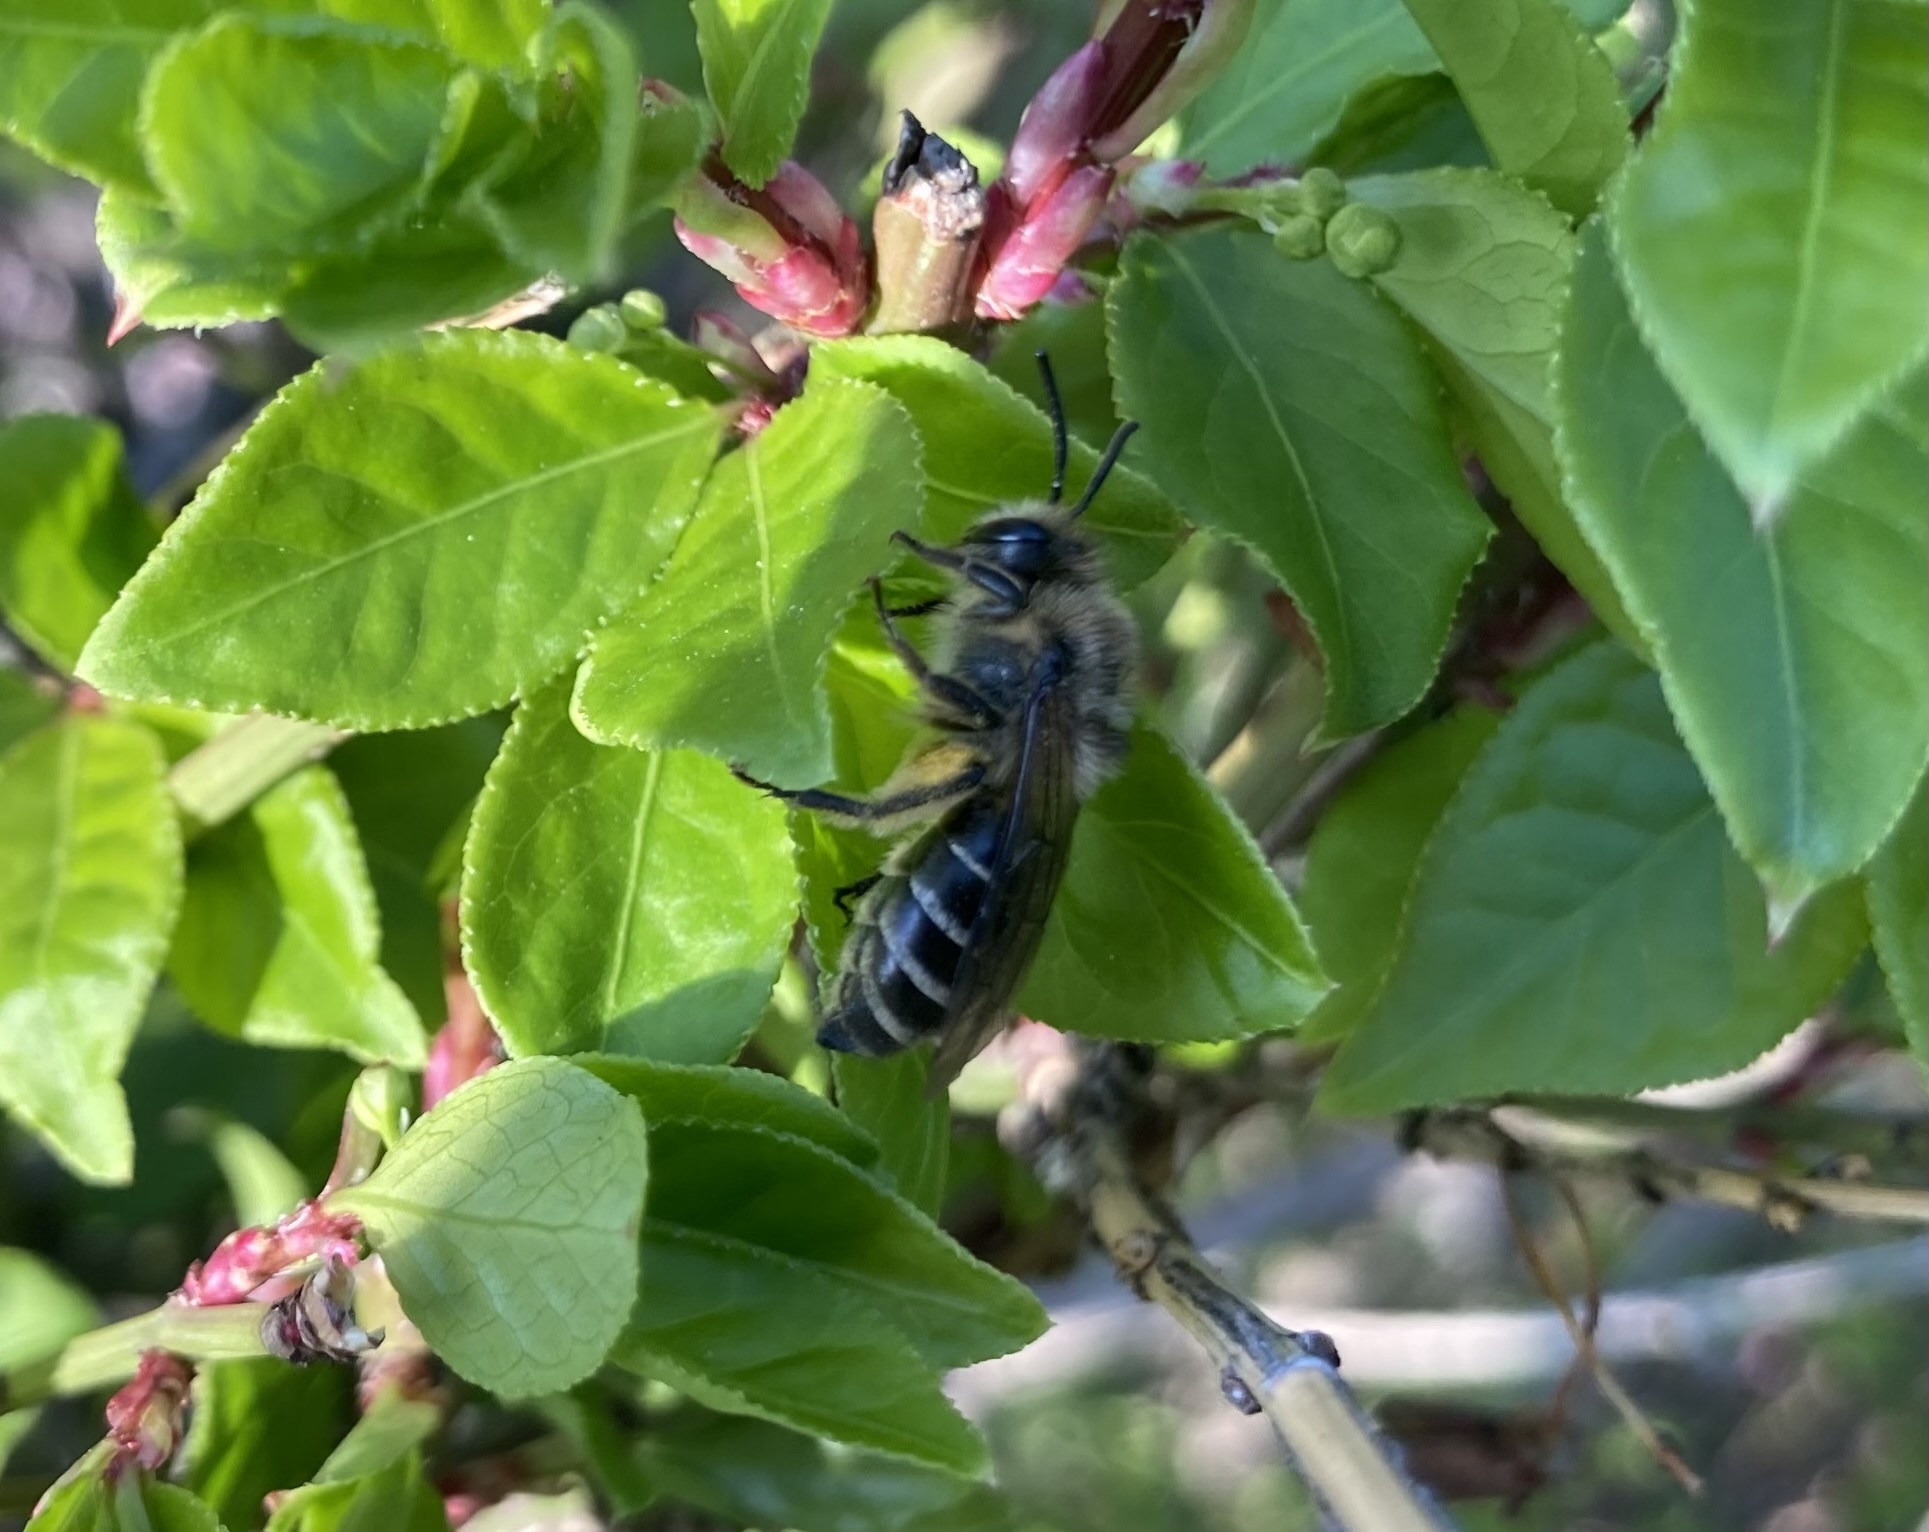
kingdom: Animalia
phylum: Arthropoda
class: Insecta
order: Hymenoptera
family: Colletidae
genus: Colletes
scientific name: Colletes inaequalis
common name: Unequal cellophane bee
